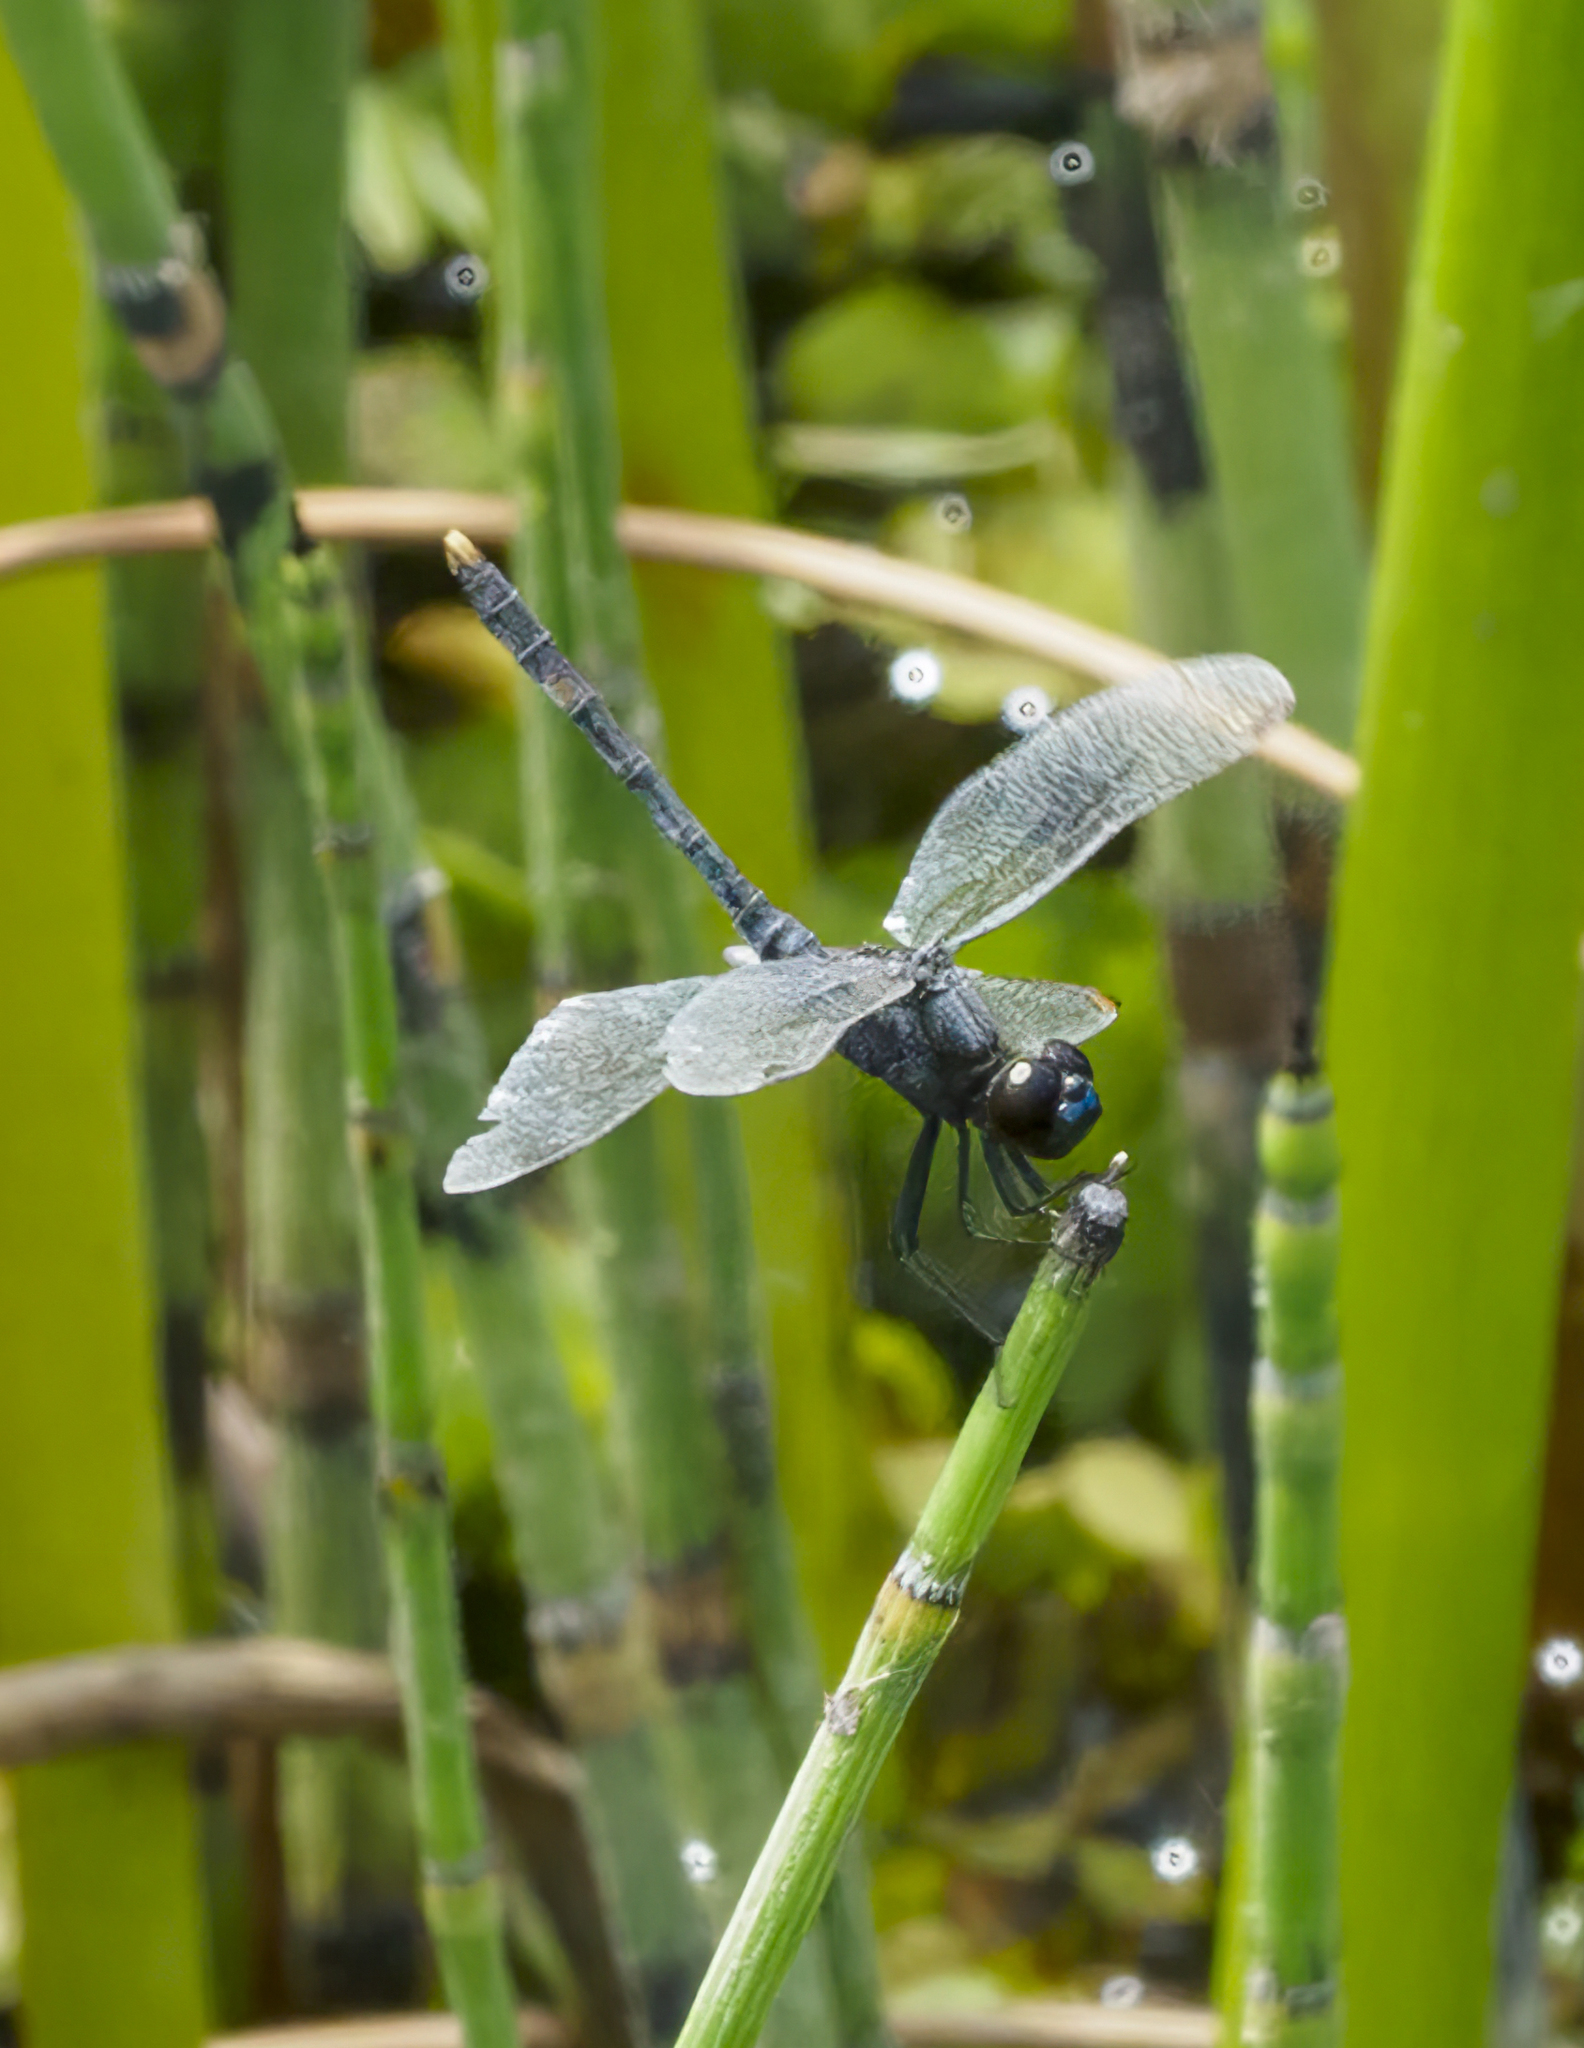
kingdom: Animalia
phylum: Arthropoda
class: Insecta
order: Odonata
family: Libellulidae
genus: Erythrodiplax
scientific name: Erythrodiplax nigricans
